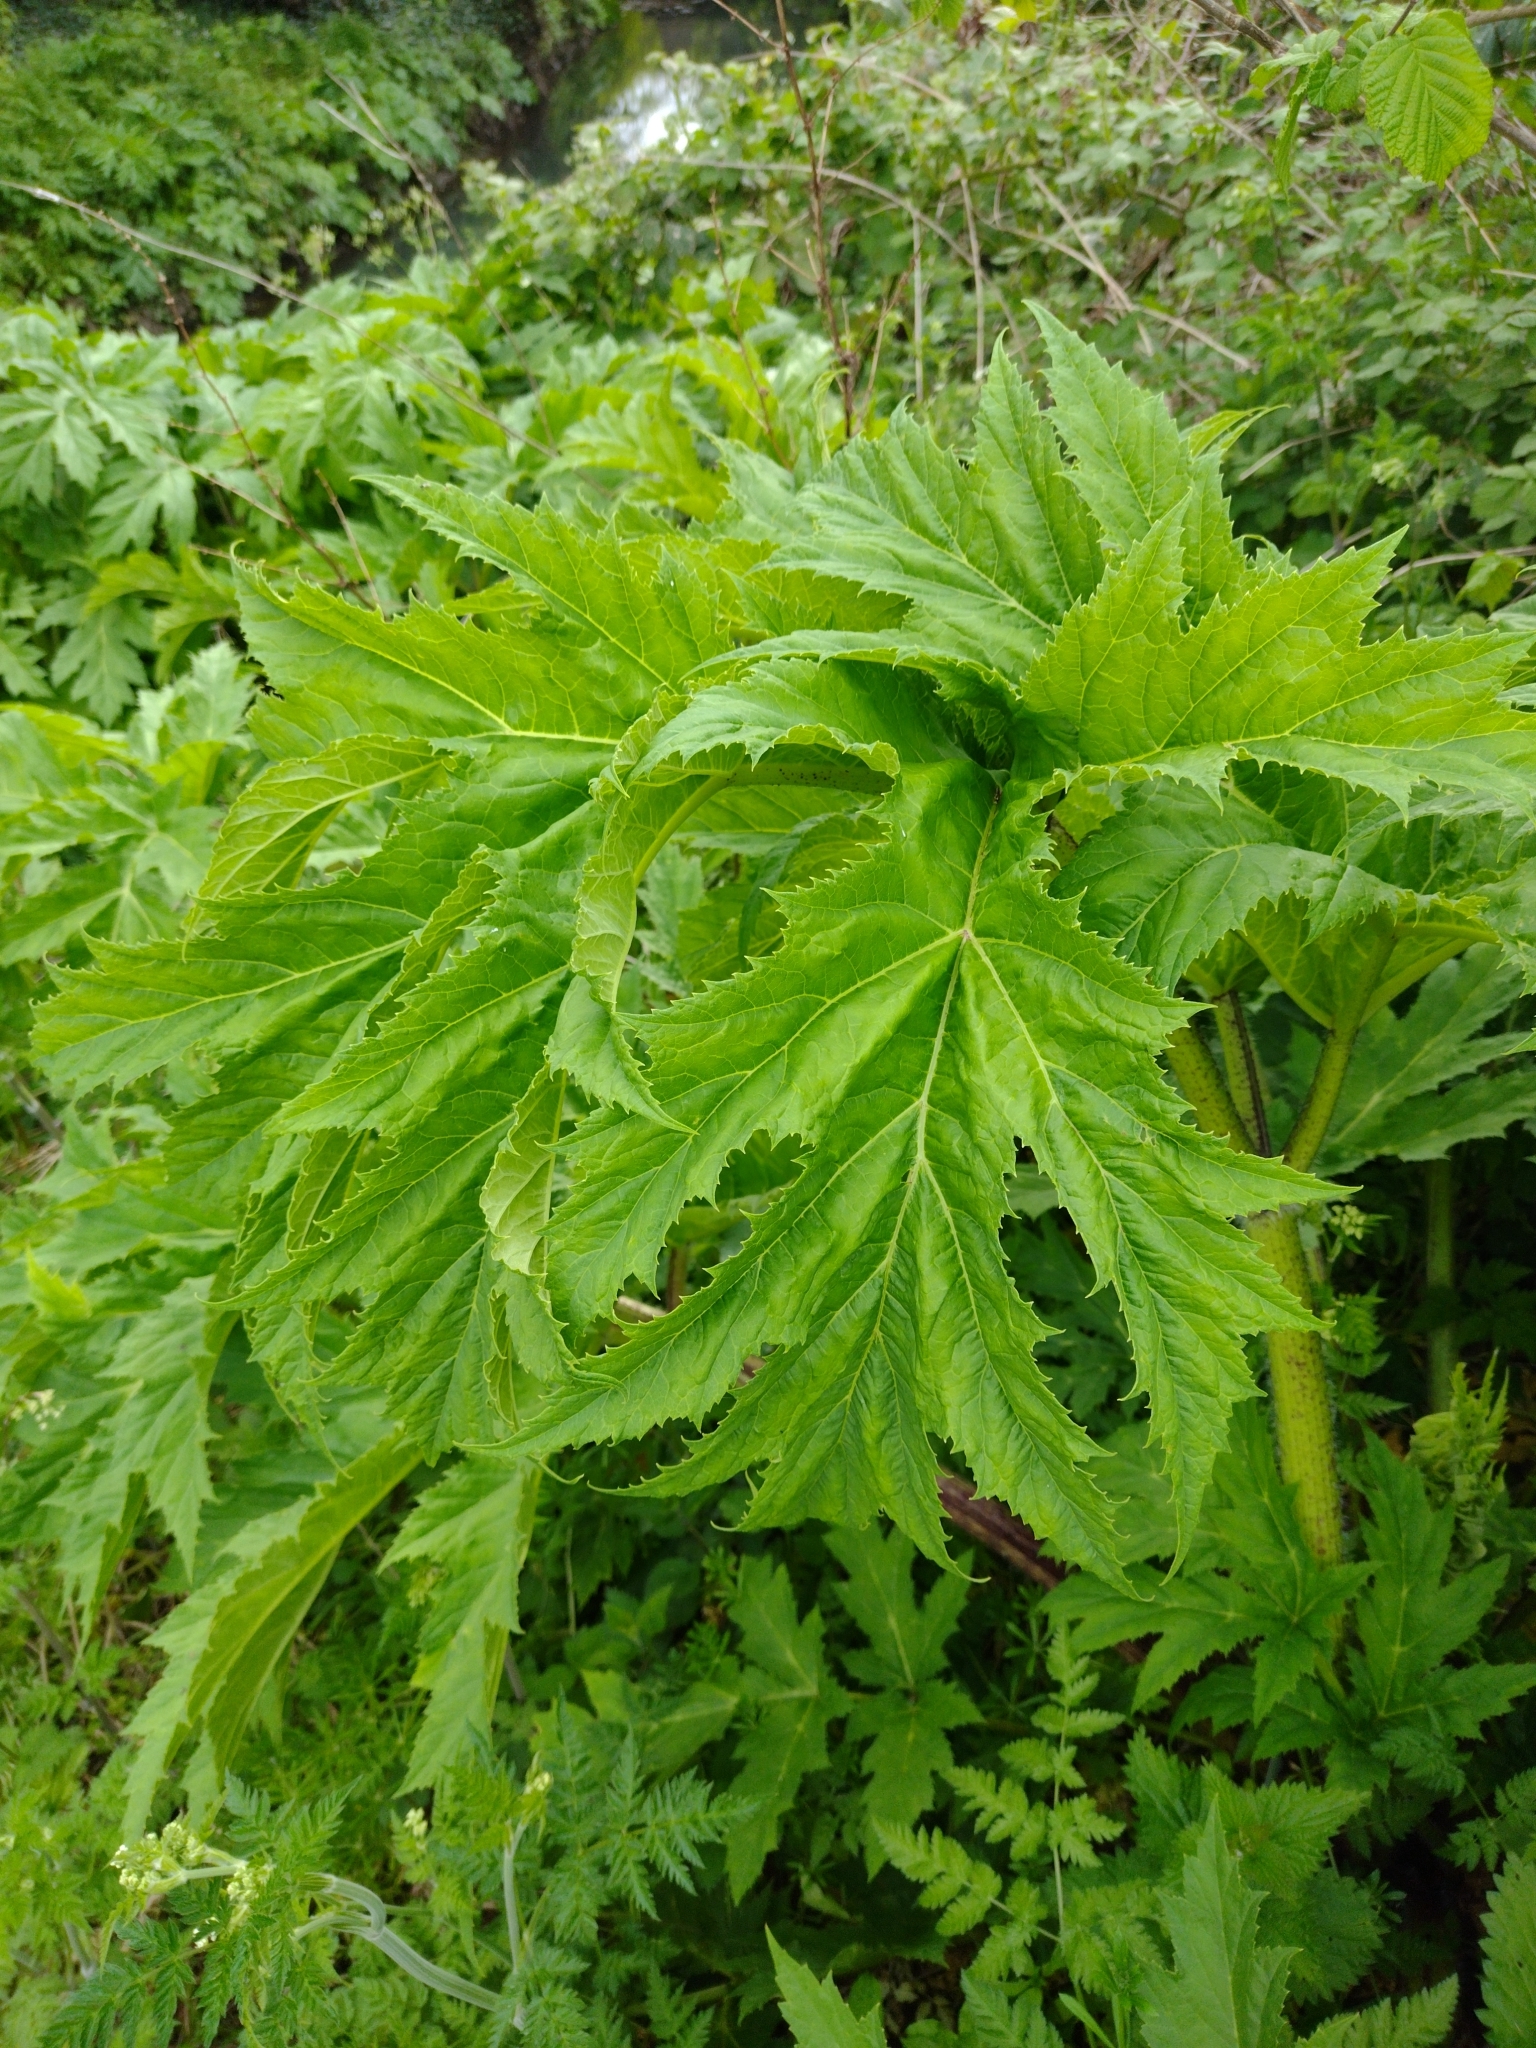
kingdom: Plantae
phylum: Tracheophyta
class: Magnoliopsida
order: Apiales
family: Apiaceae
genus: Heracleum
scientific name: Heracleum mantegazzianum
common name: Giant hogweed
